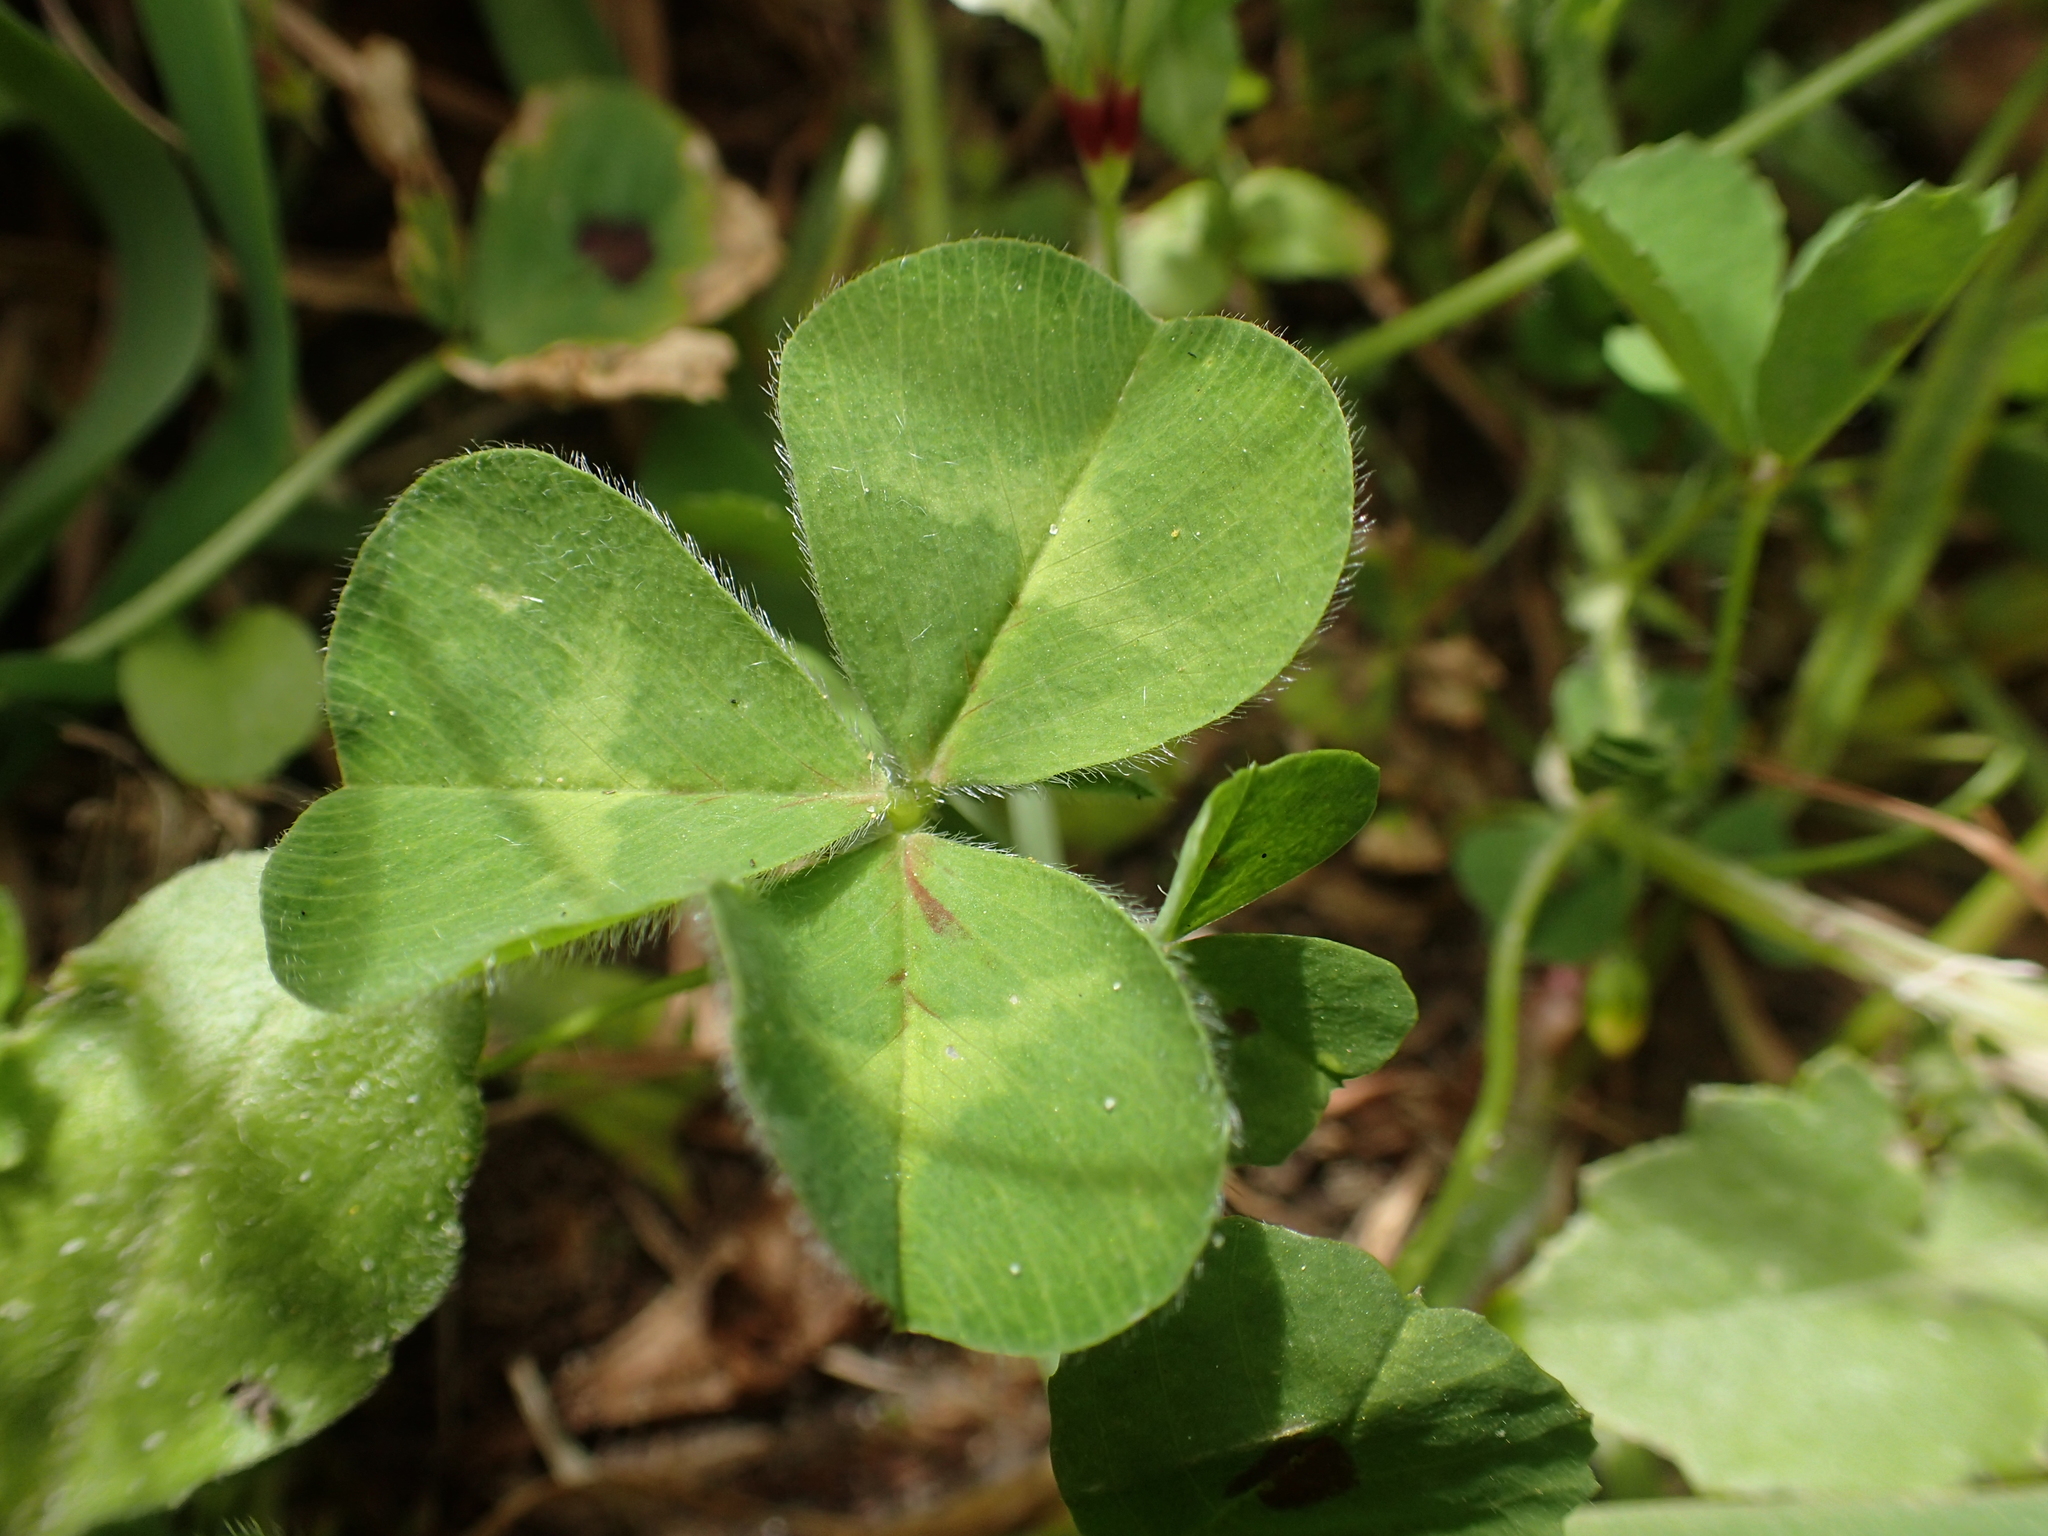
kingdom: Plantae
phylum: Tracheophyta
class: Magnoliopsida
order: Fabales
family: Fabaceae
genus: Trifolium
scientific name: Trifolium subterraneum
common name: Subterranean clover
